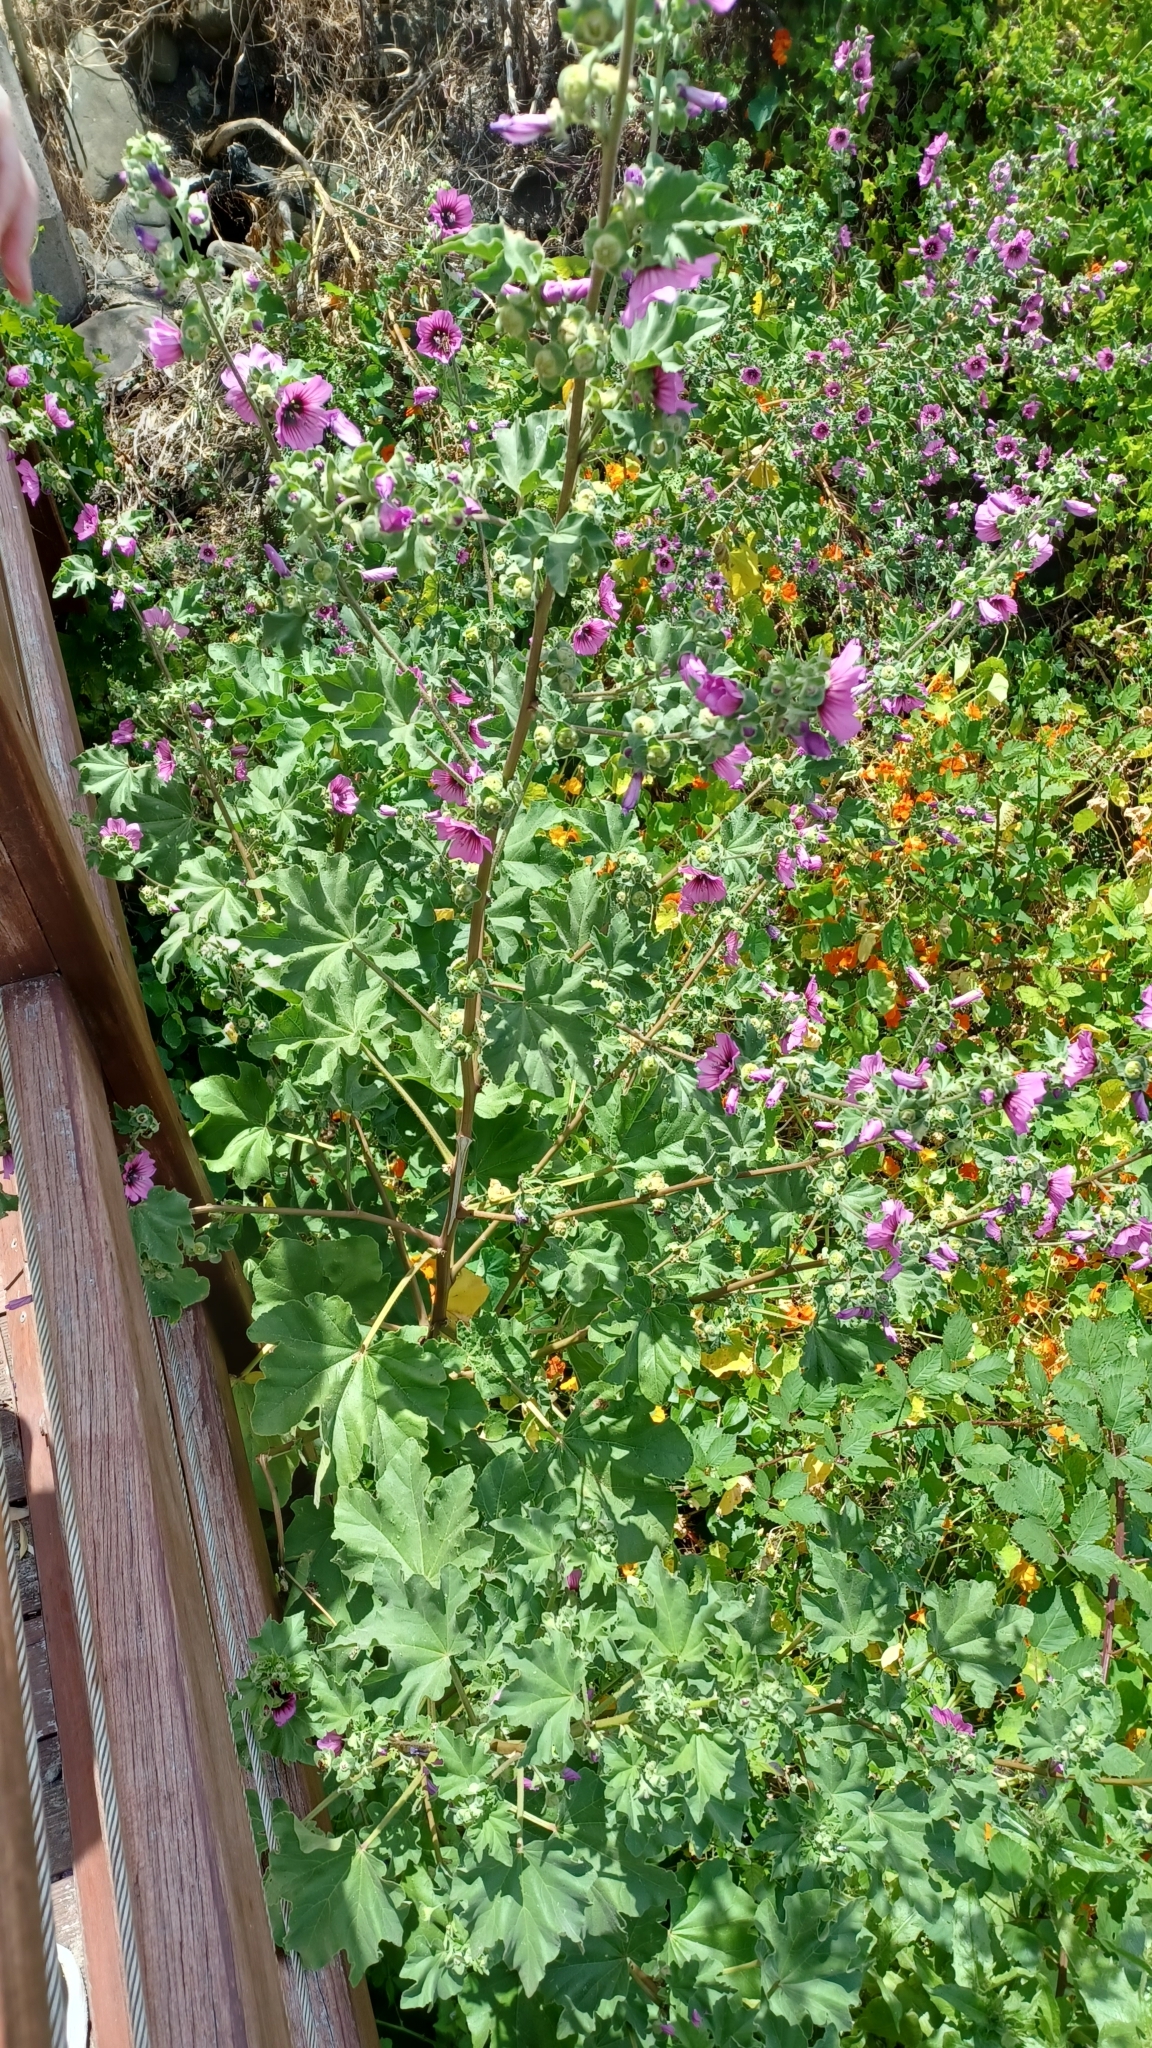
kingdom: Plantae
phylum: Tracheophyta
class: Magnoliopsida
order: Malvales
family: Malvaceae
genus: Malva
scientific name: Malva arborea
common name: Tree mallow
